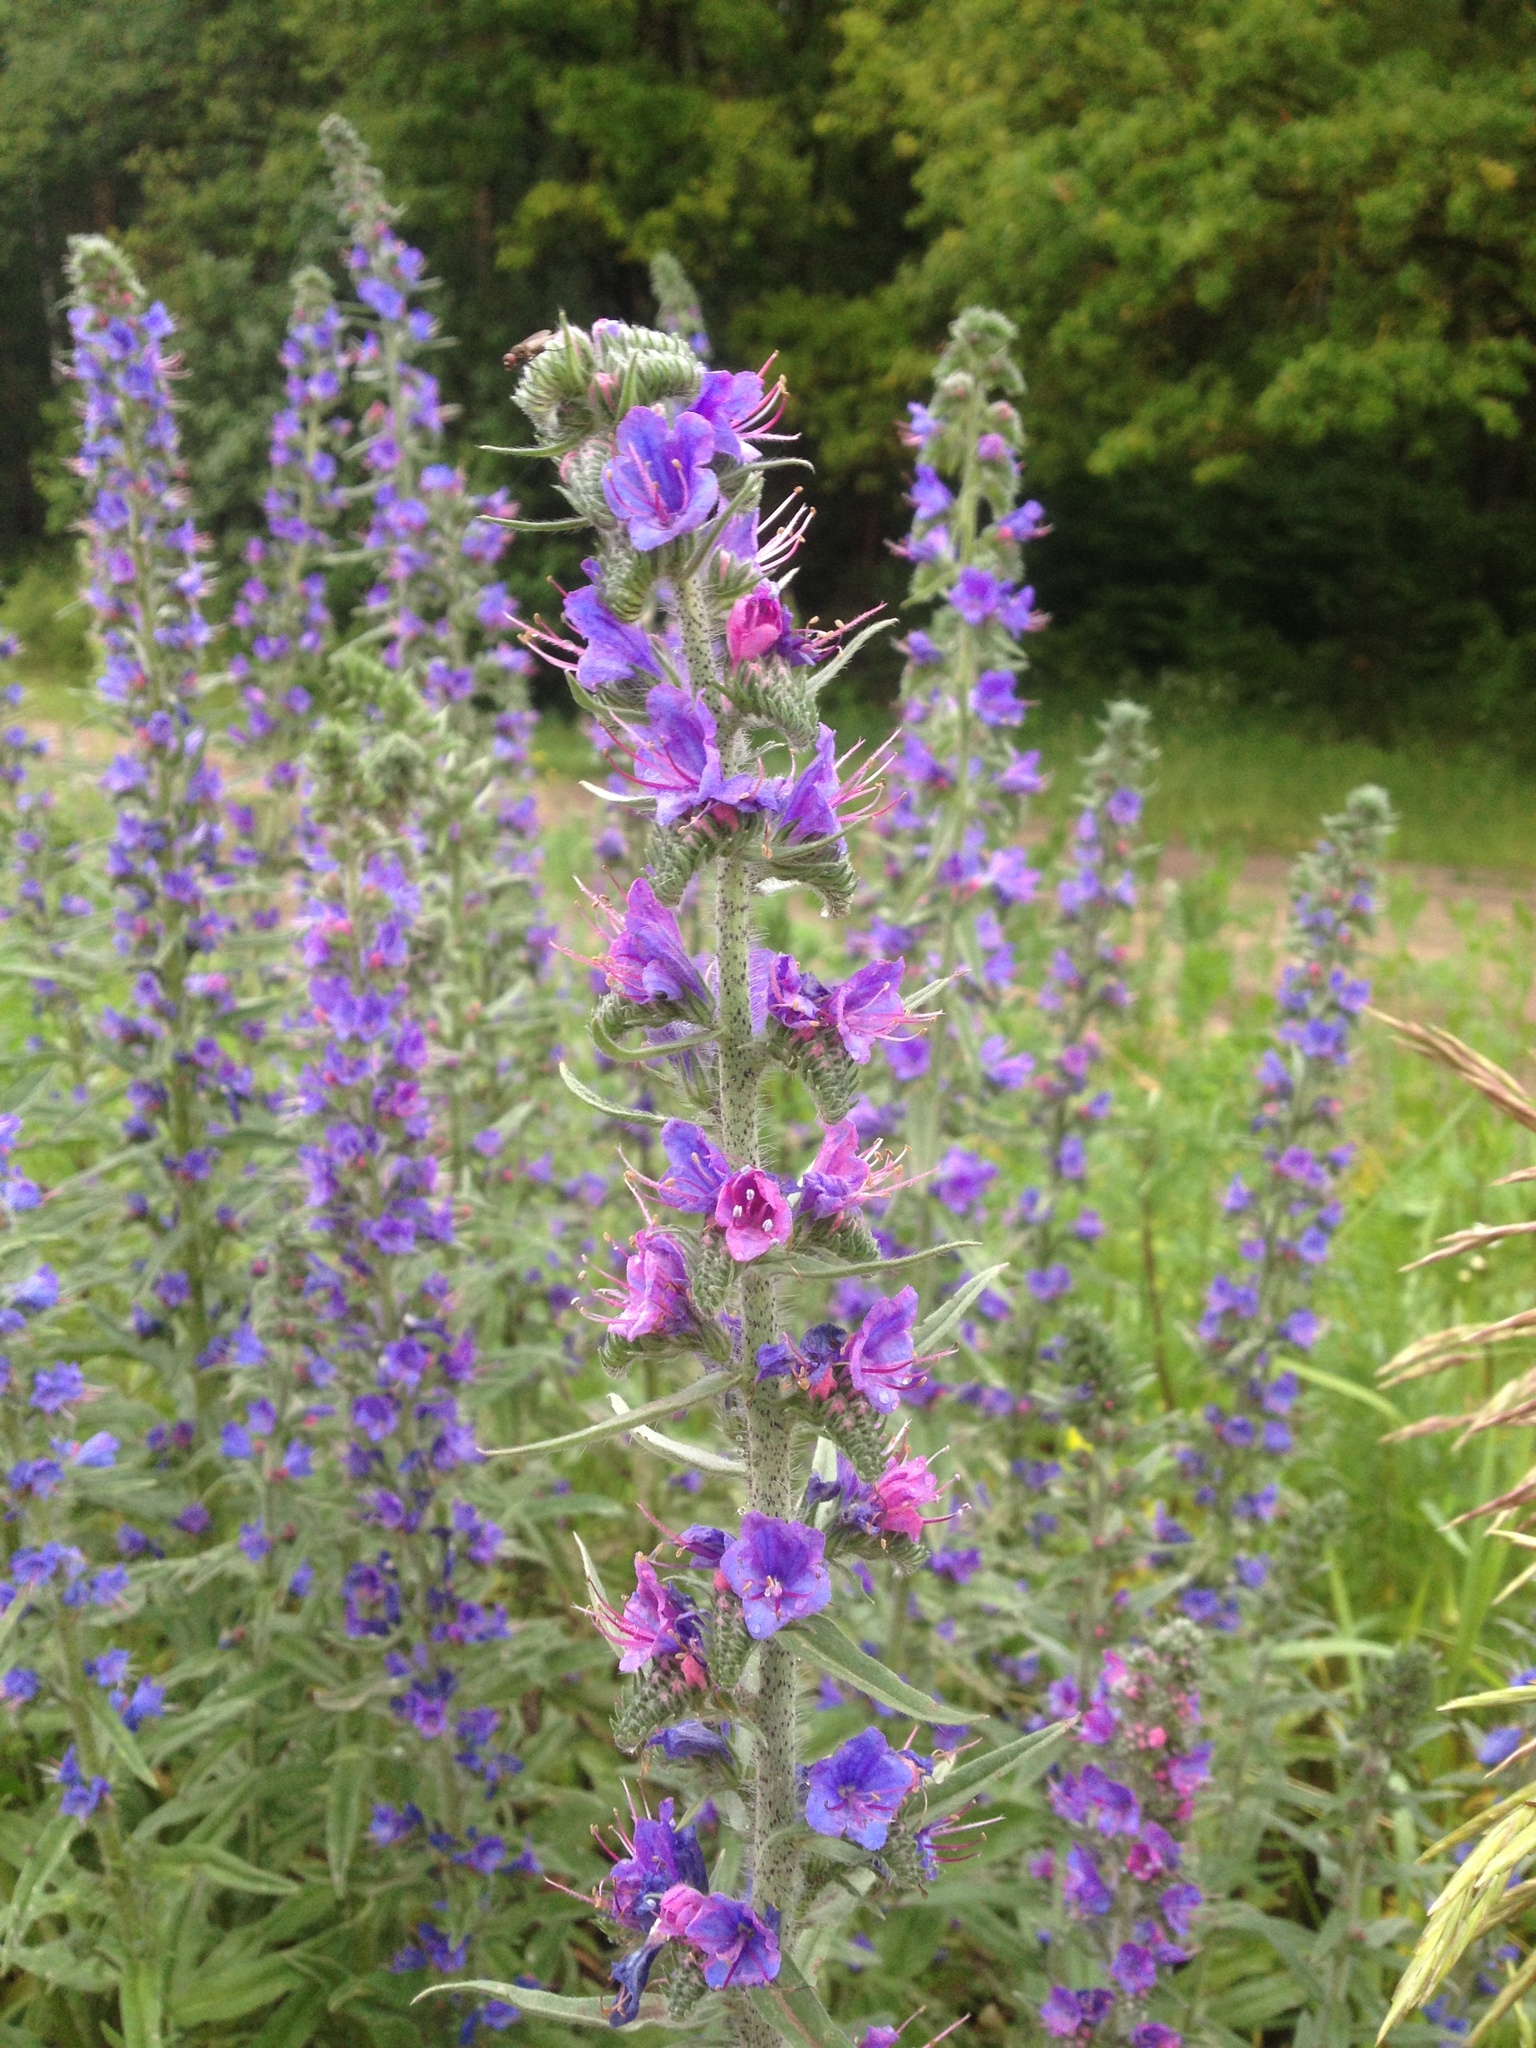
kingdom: Plantae
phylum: Tracheophyta
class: Magnoliopsida
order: Boraginales
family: Boraginaceae
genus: Echium
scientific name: Echium vulgare
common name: Common viper's bugloss
